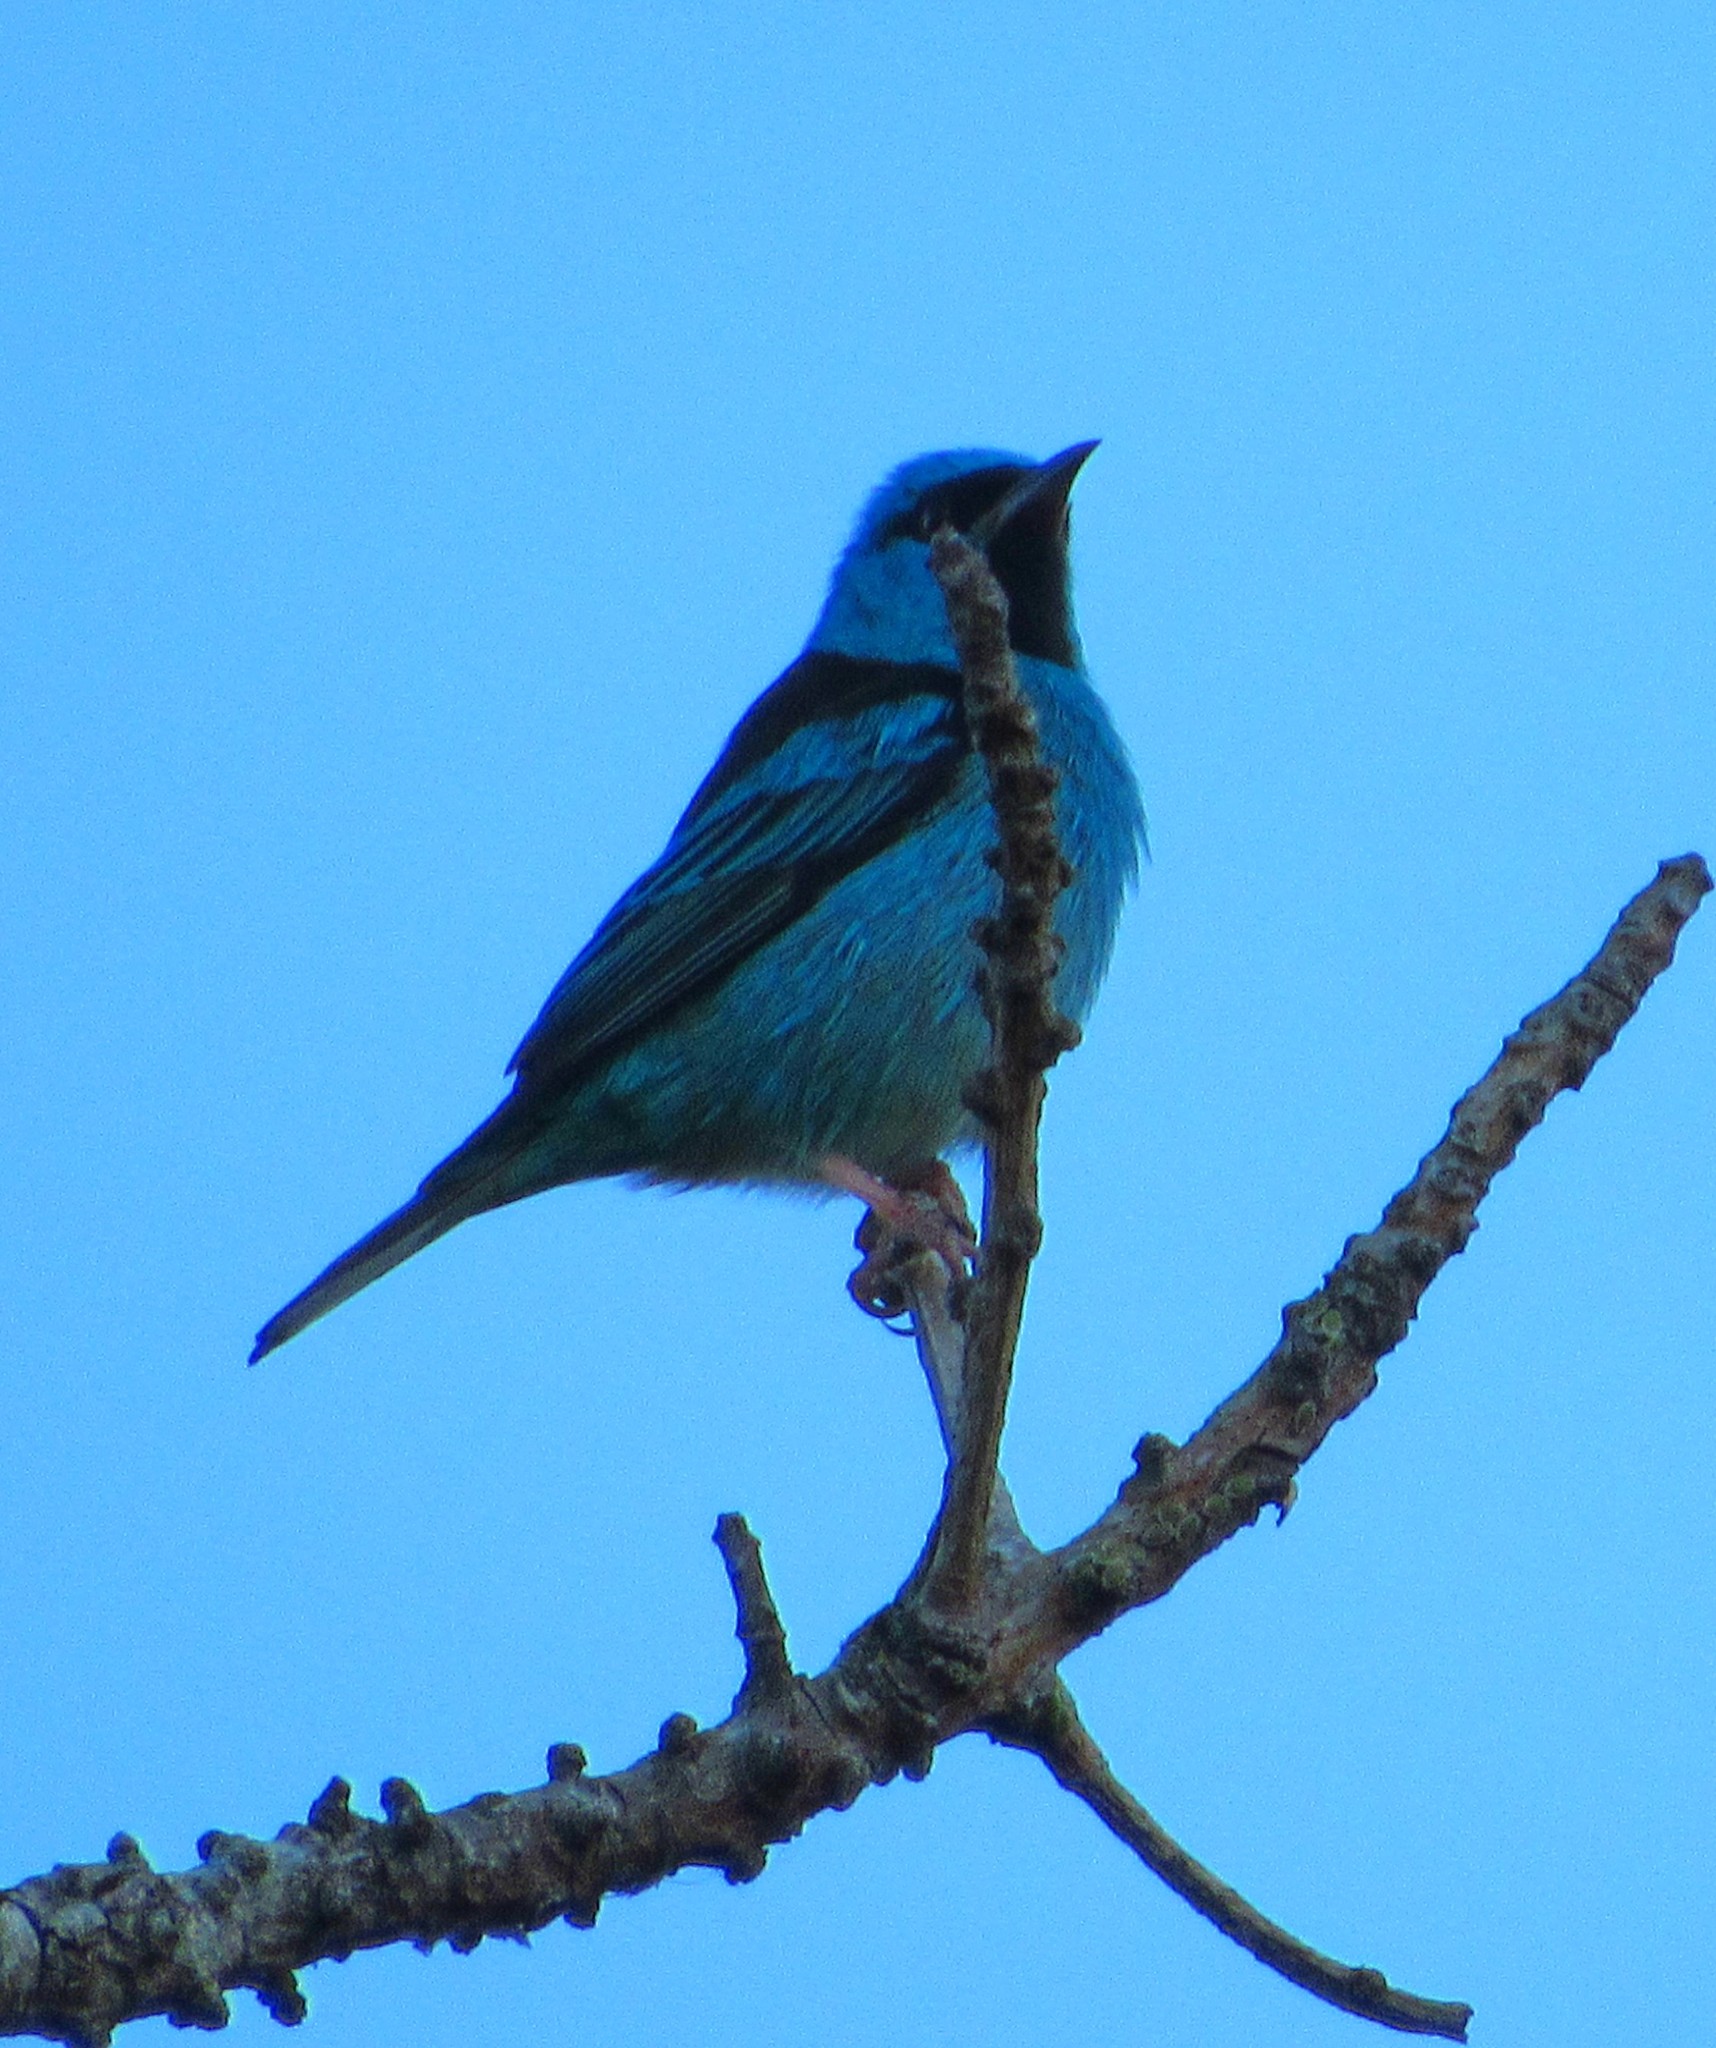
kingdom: Animalia
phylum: Chordata
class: Aves
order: Passeriformes
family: Thraupidae
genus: Dacnis
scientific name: Dacnis cayana
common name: Blue dacnis
